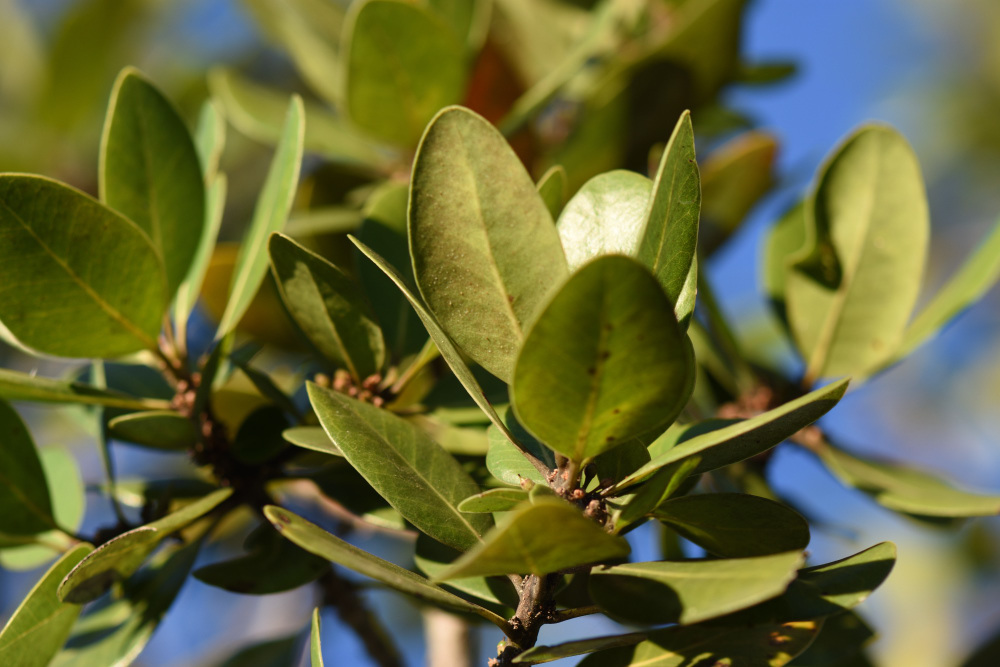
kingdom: Plantae
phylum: Tracheophyta
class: Magnoliopsida
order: Ericales
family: Sapotaceae
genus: Sideroxylon
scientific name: Sideroxylon inerme
